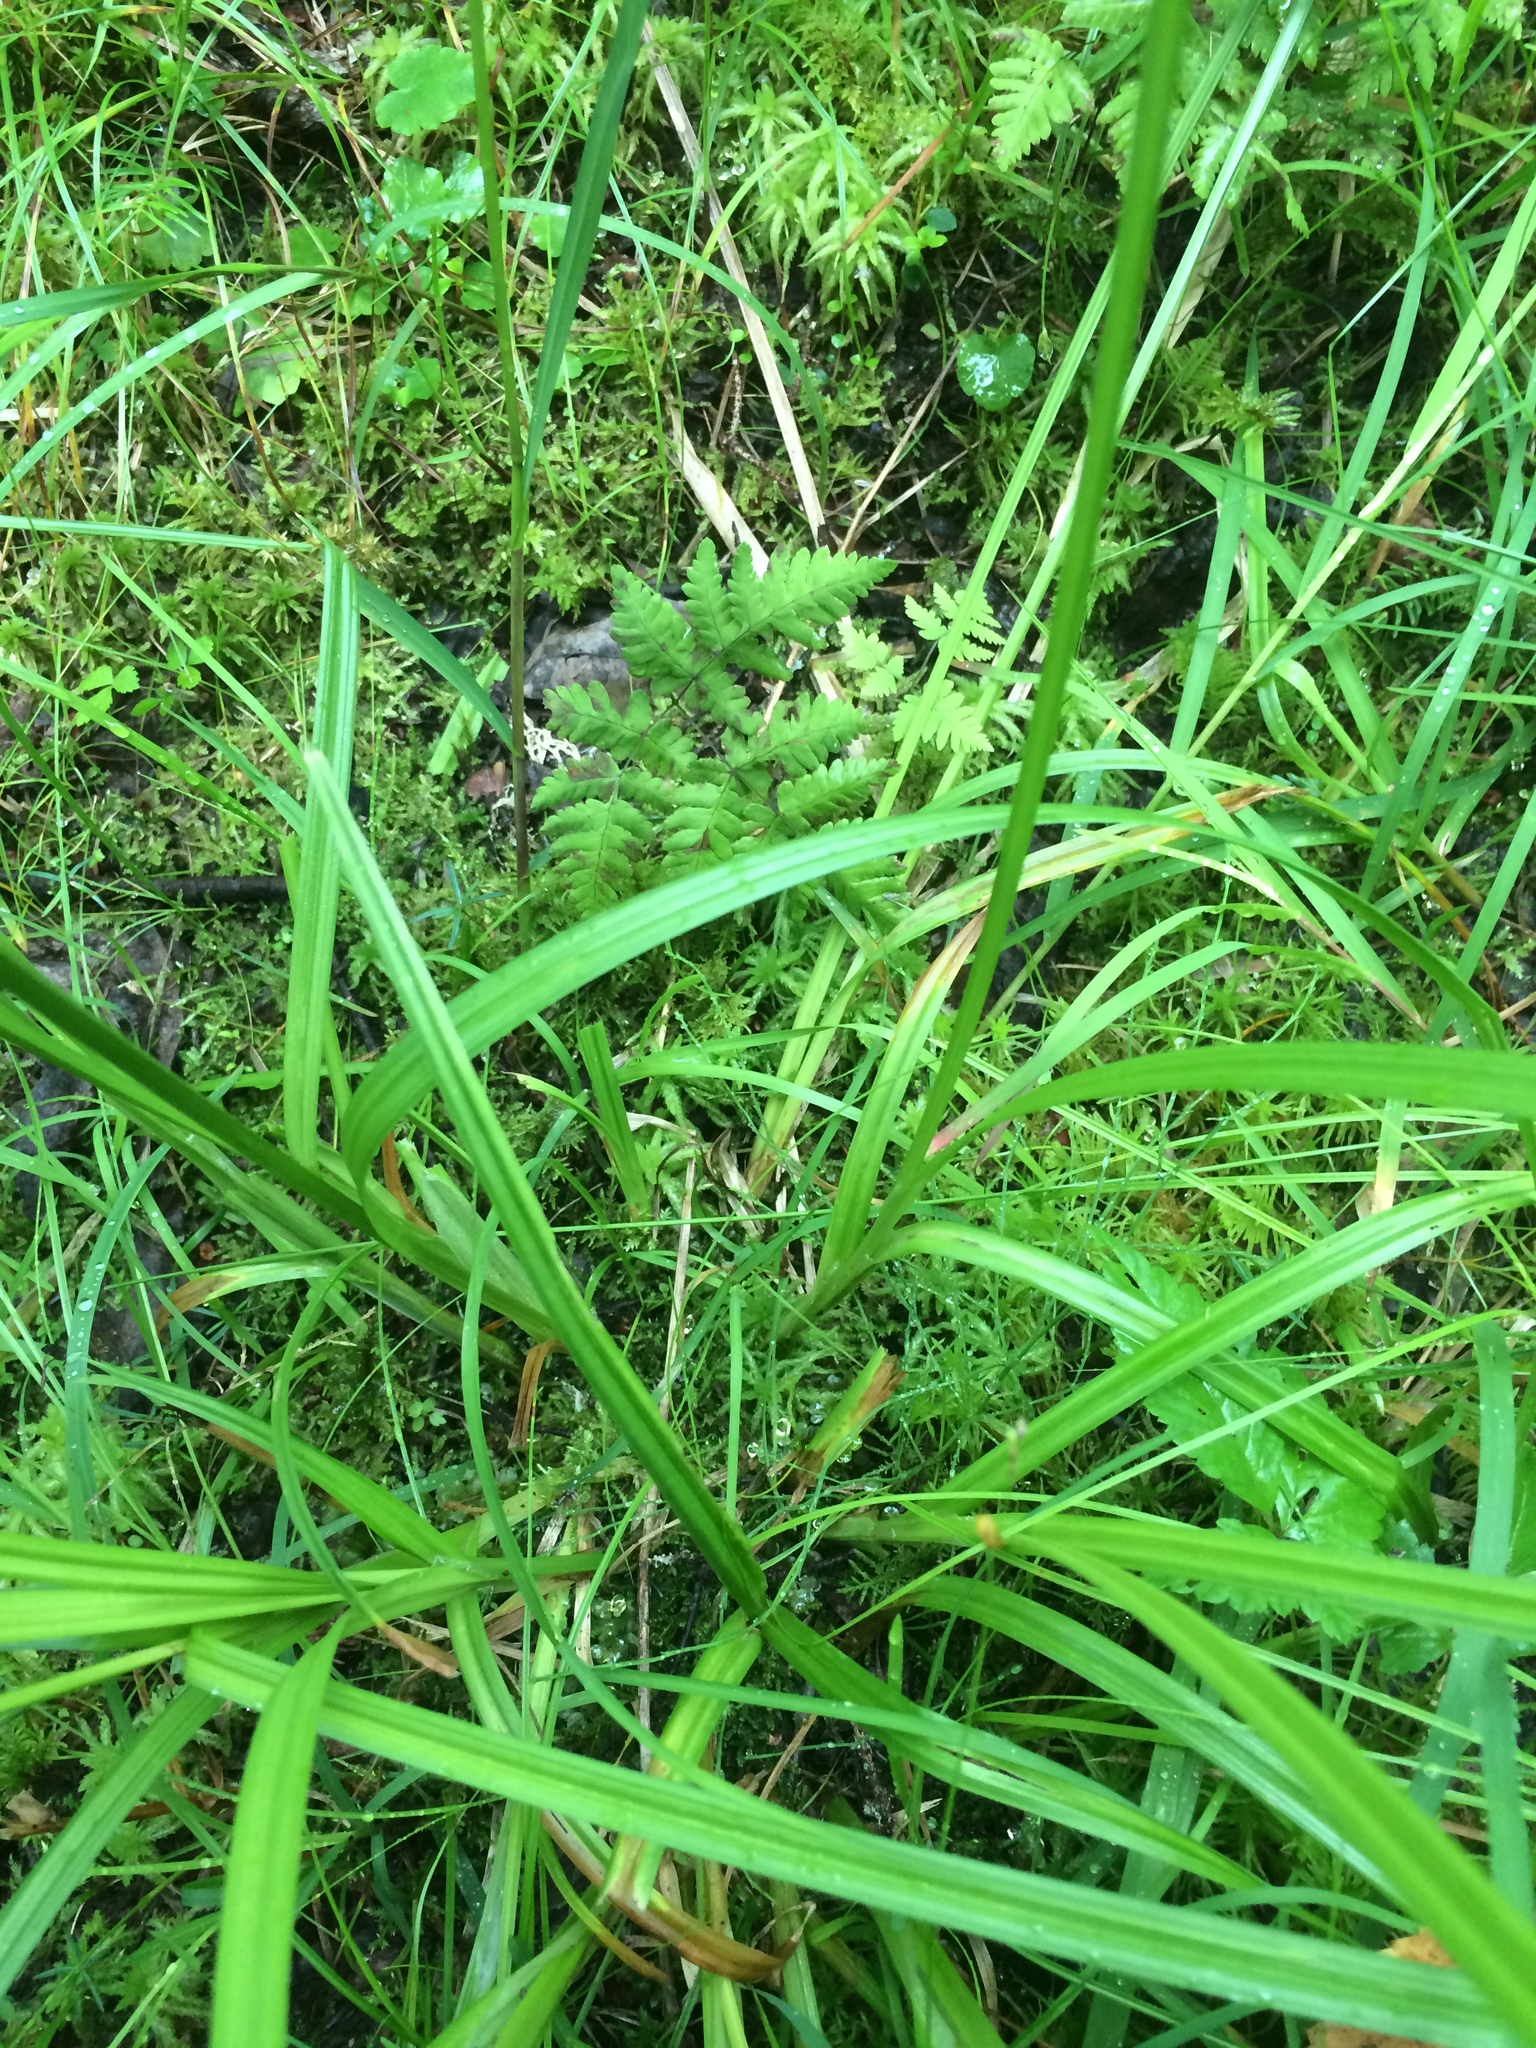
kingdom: Plantae
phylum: Tracheophyta
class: Liliopsida
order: Poales
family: Cyperaceae
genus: Carex
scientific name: Carex stipata
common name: Awl-fruited sedge
